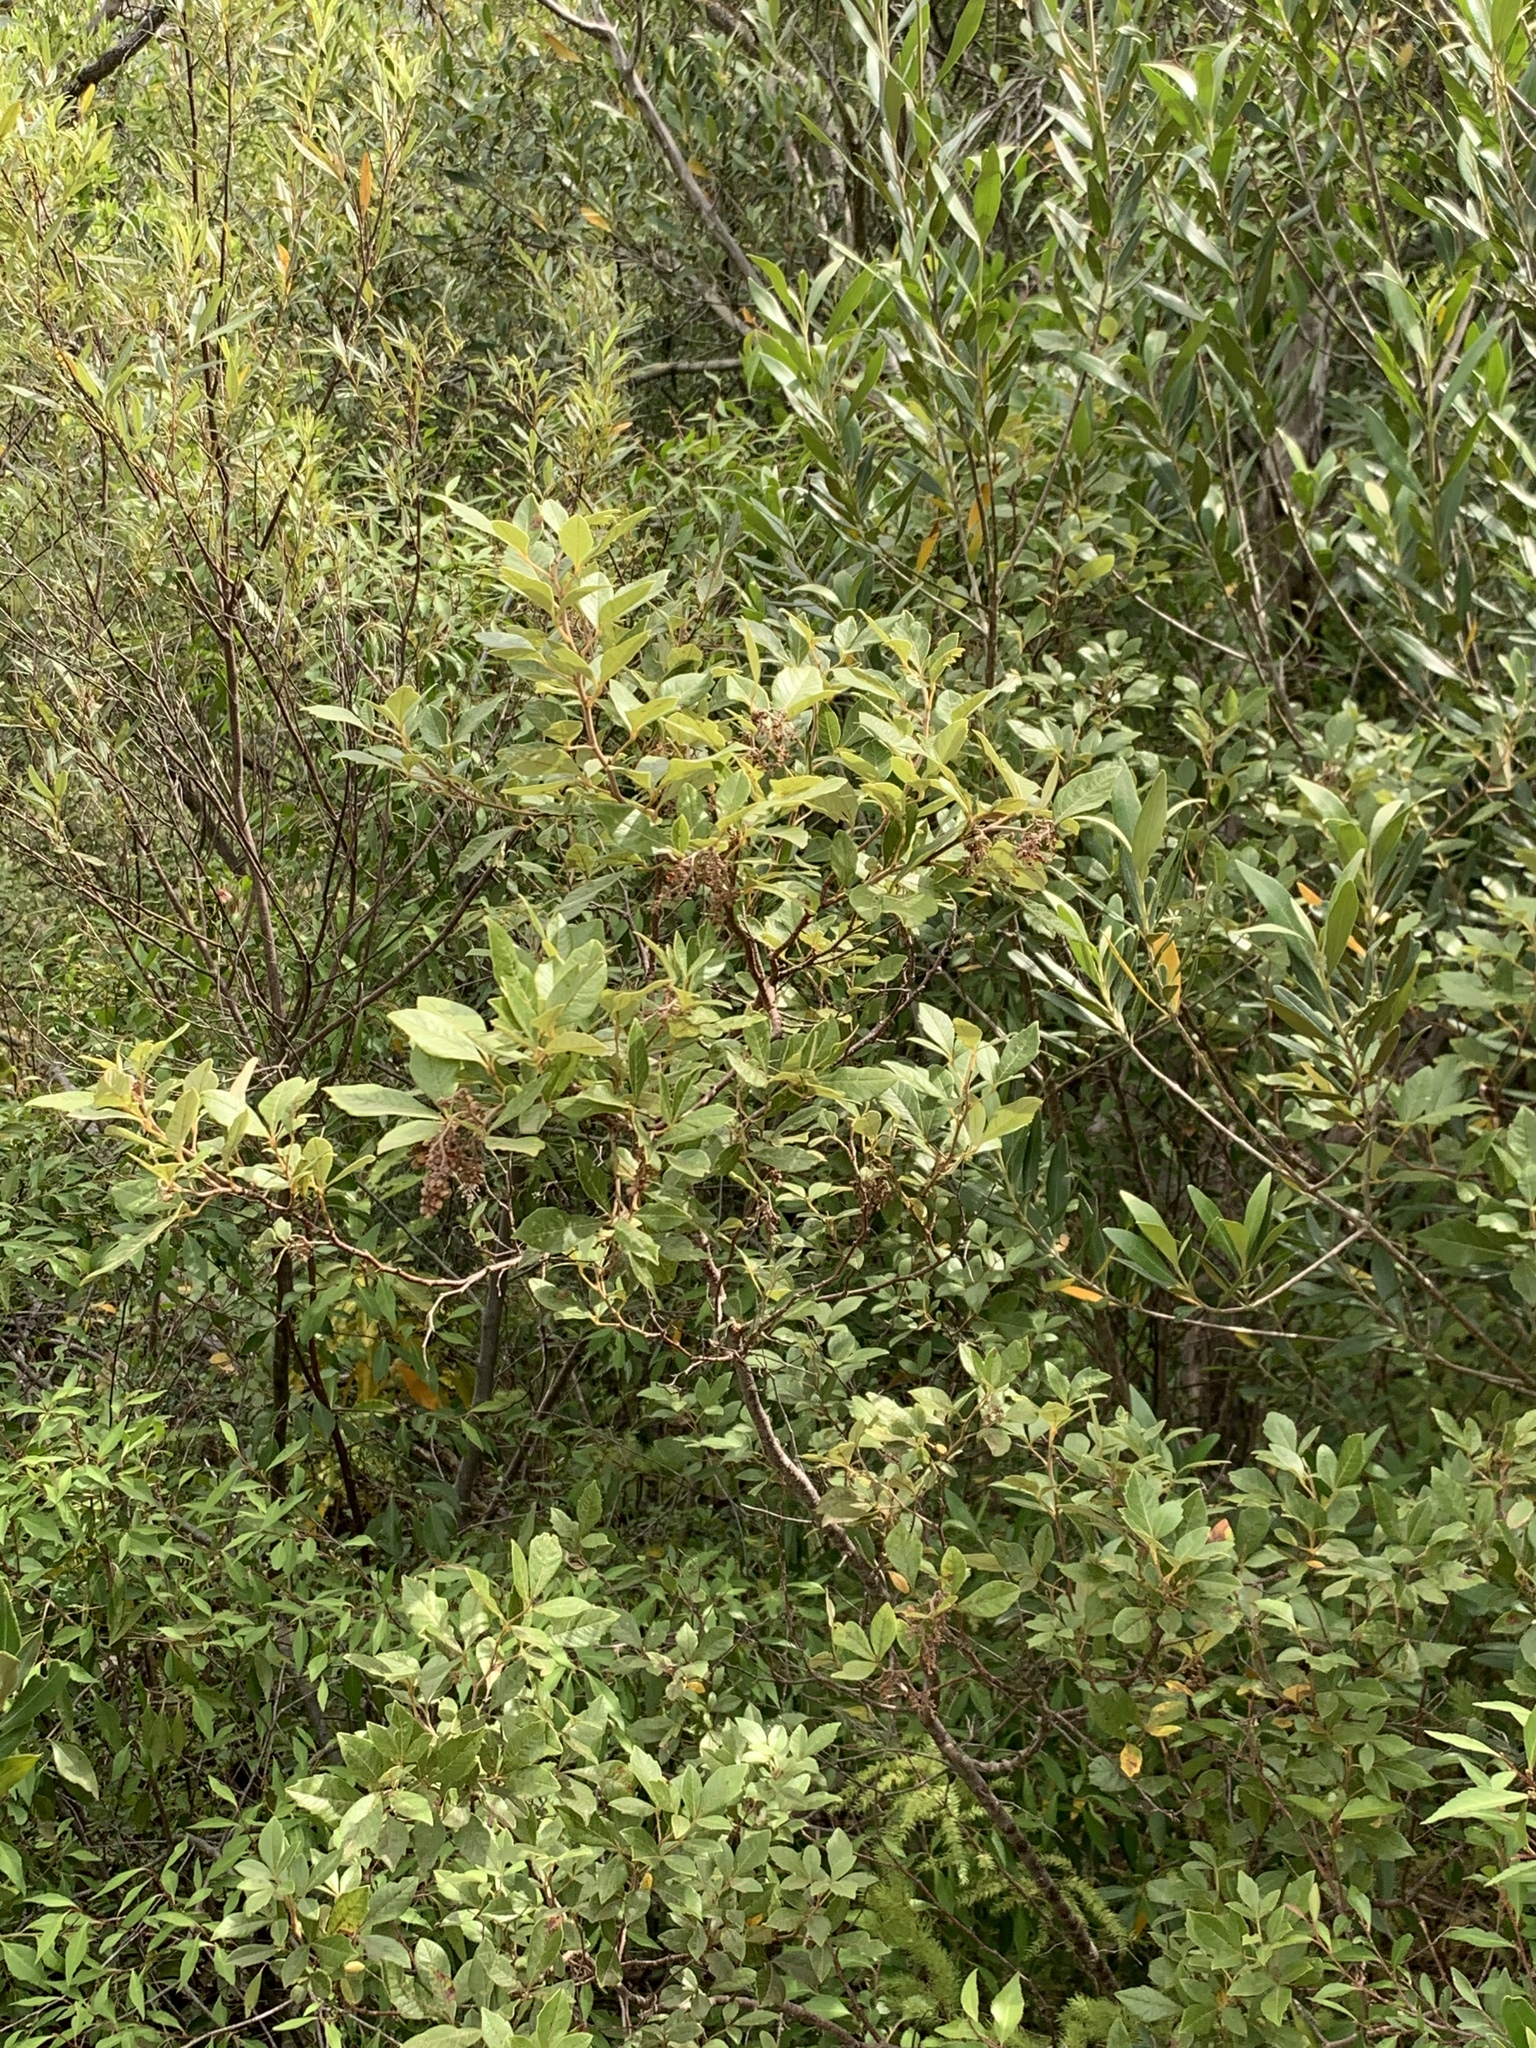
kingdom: Plantae
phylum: Tracheophyta
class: Magnoliopsida
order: Sapindales
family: Anacardiaceae
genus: Searsia
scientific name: Searsia tomentosa
